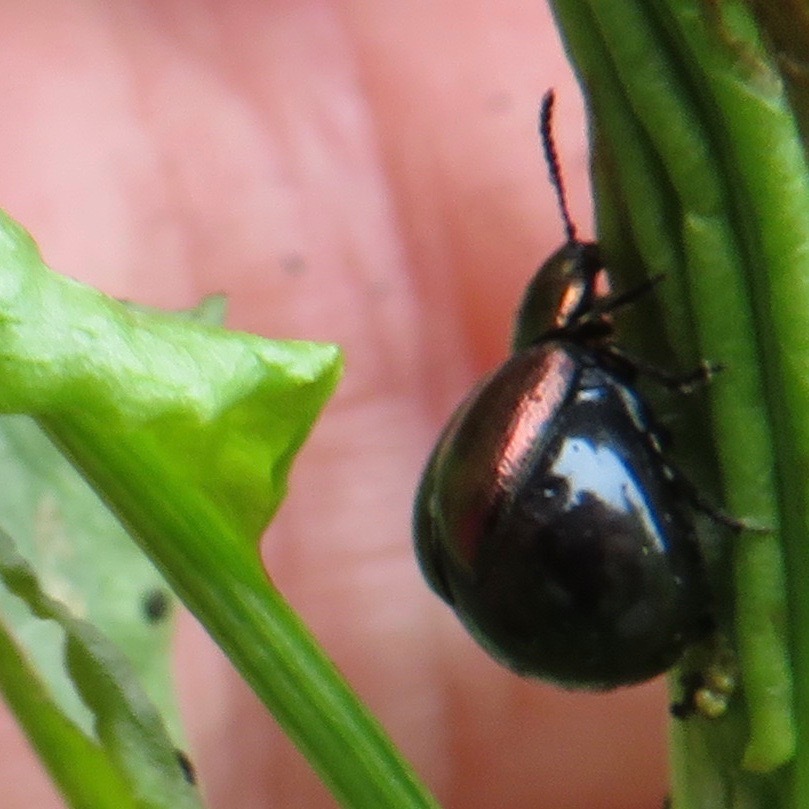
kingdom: Animalia
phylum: Arthropoda
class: Insecta
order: Coleoptera
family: Chrysomelidae
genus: Gastrophysa
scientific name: Gastrophysa cyanea
